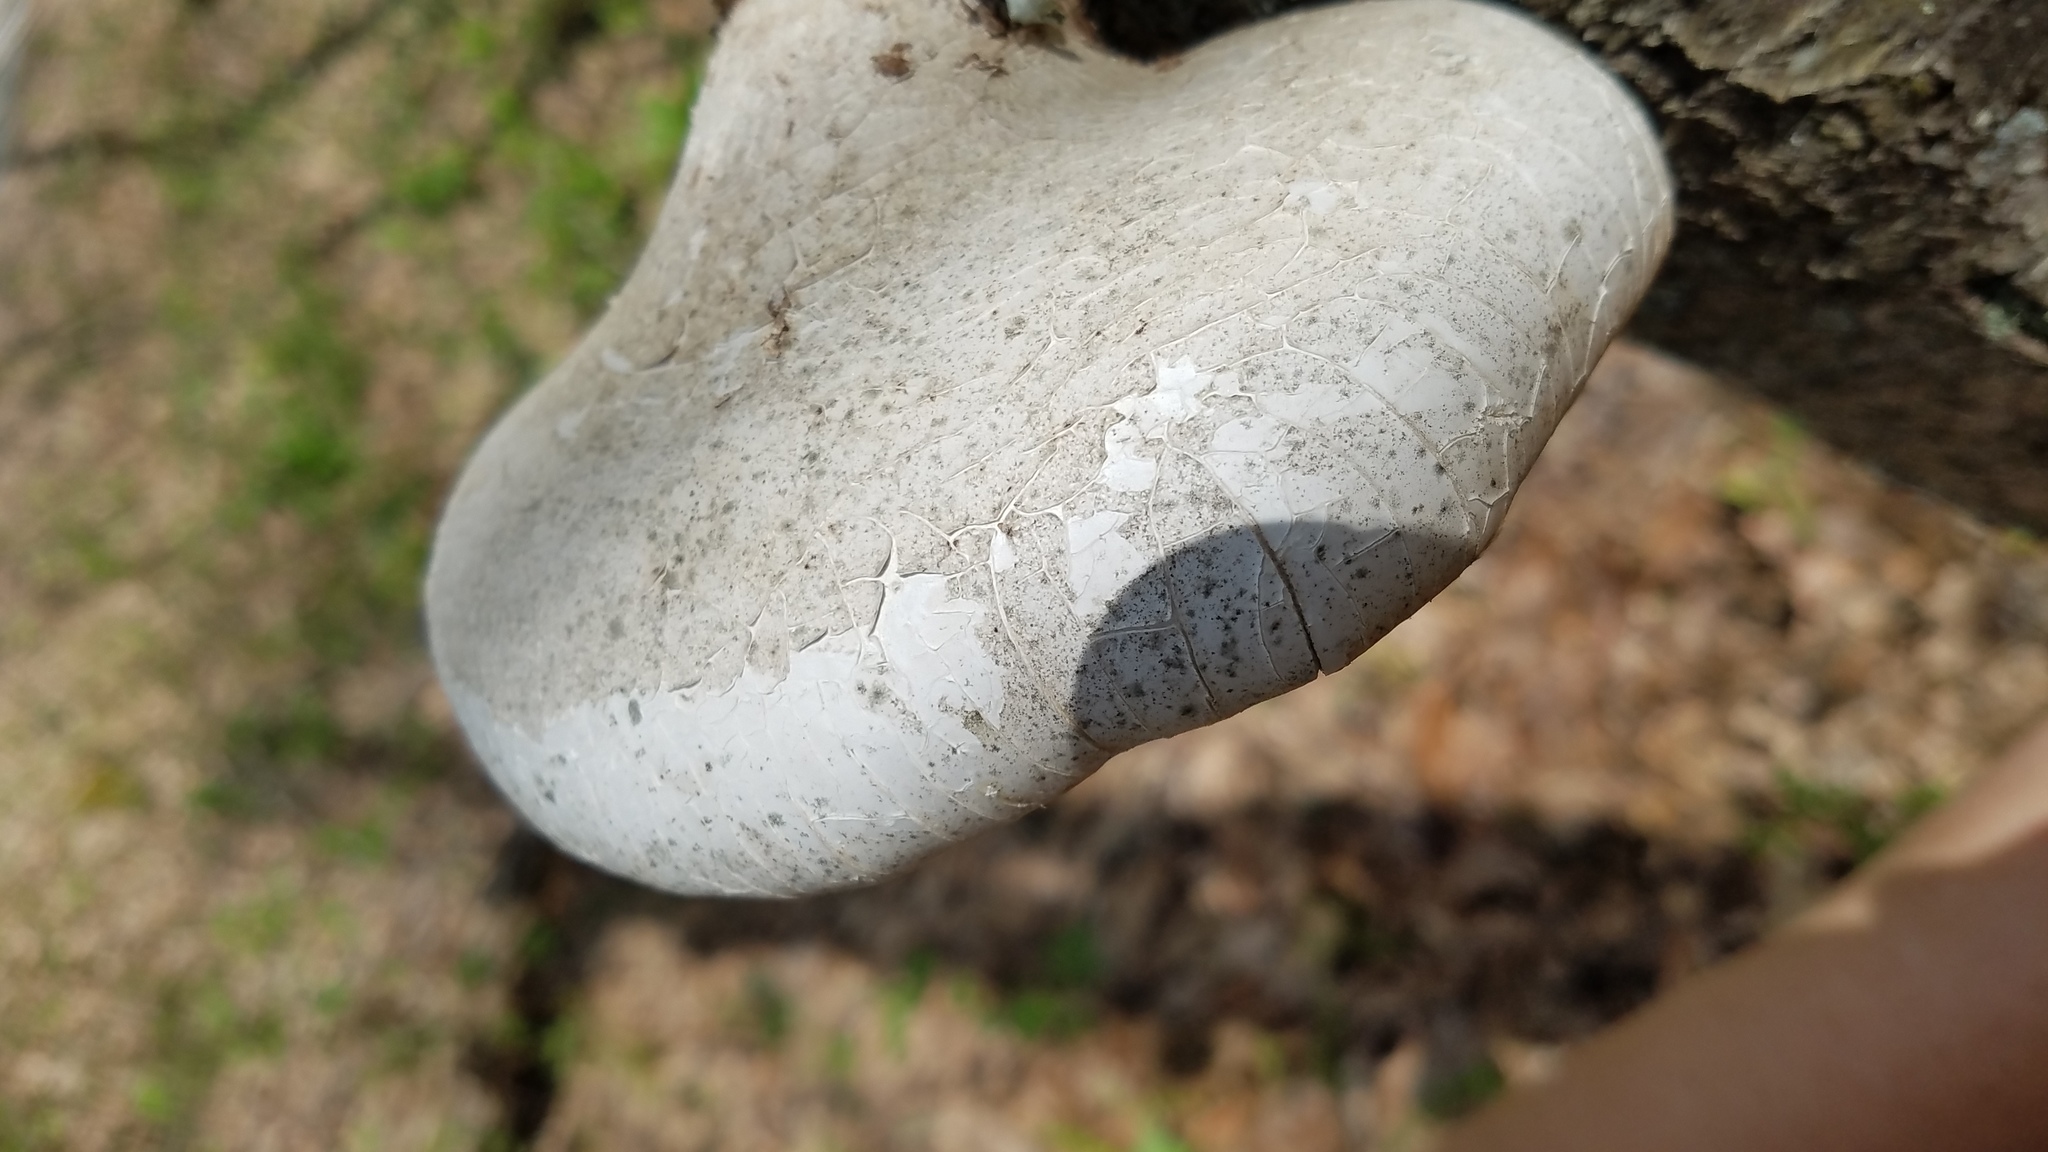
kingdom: Fungi
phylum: Basidiomycota
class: Agaricomycetes
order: Polyporales
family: Fomitopsidaceae
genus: Fomitopsis
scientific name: Fomitopsis betulina
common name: Birch polypore
